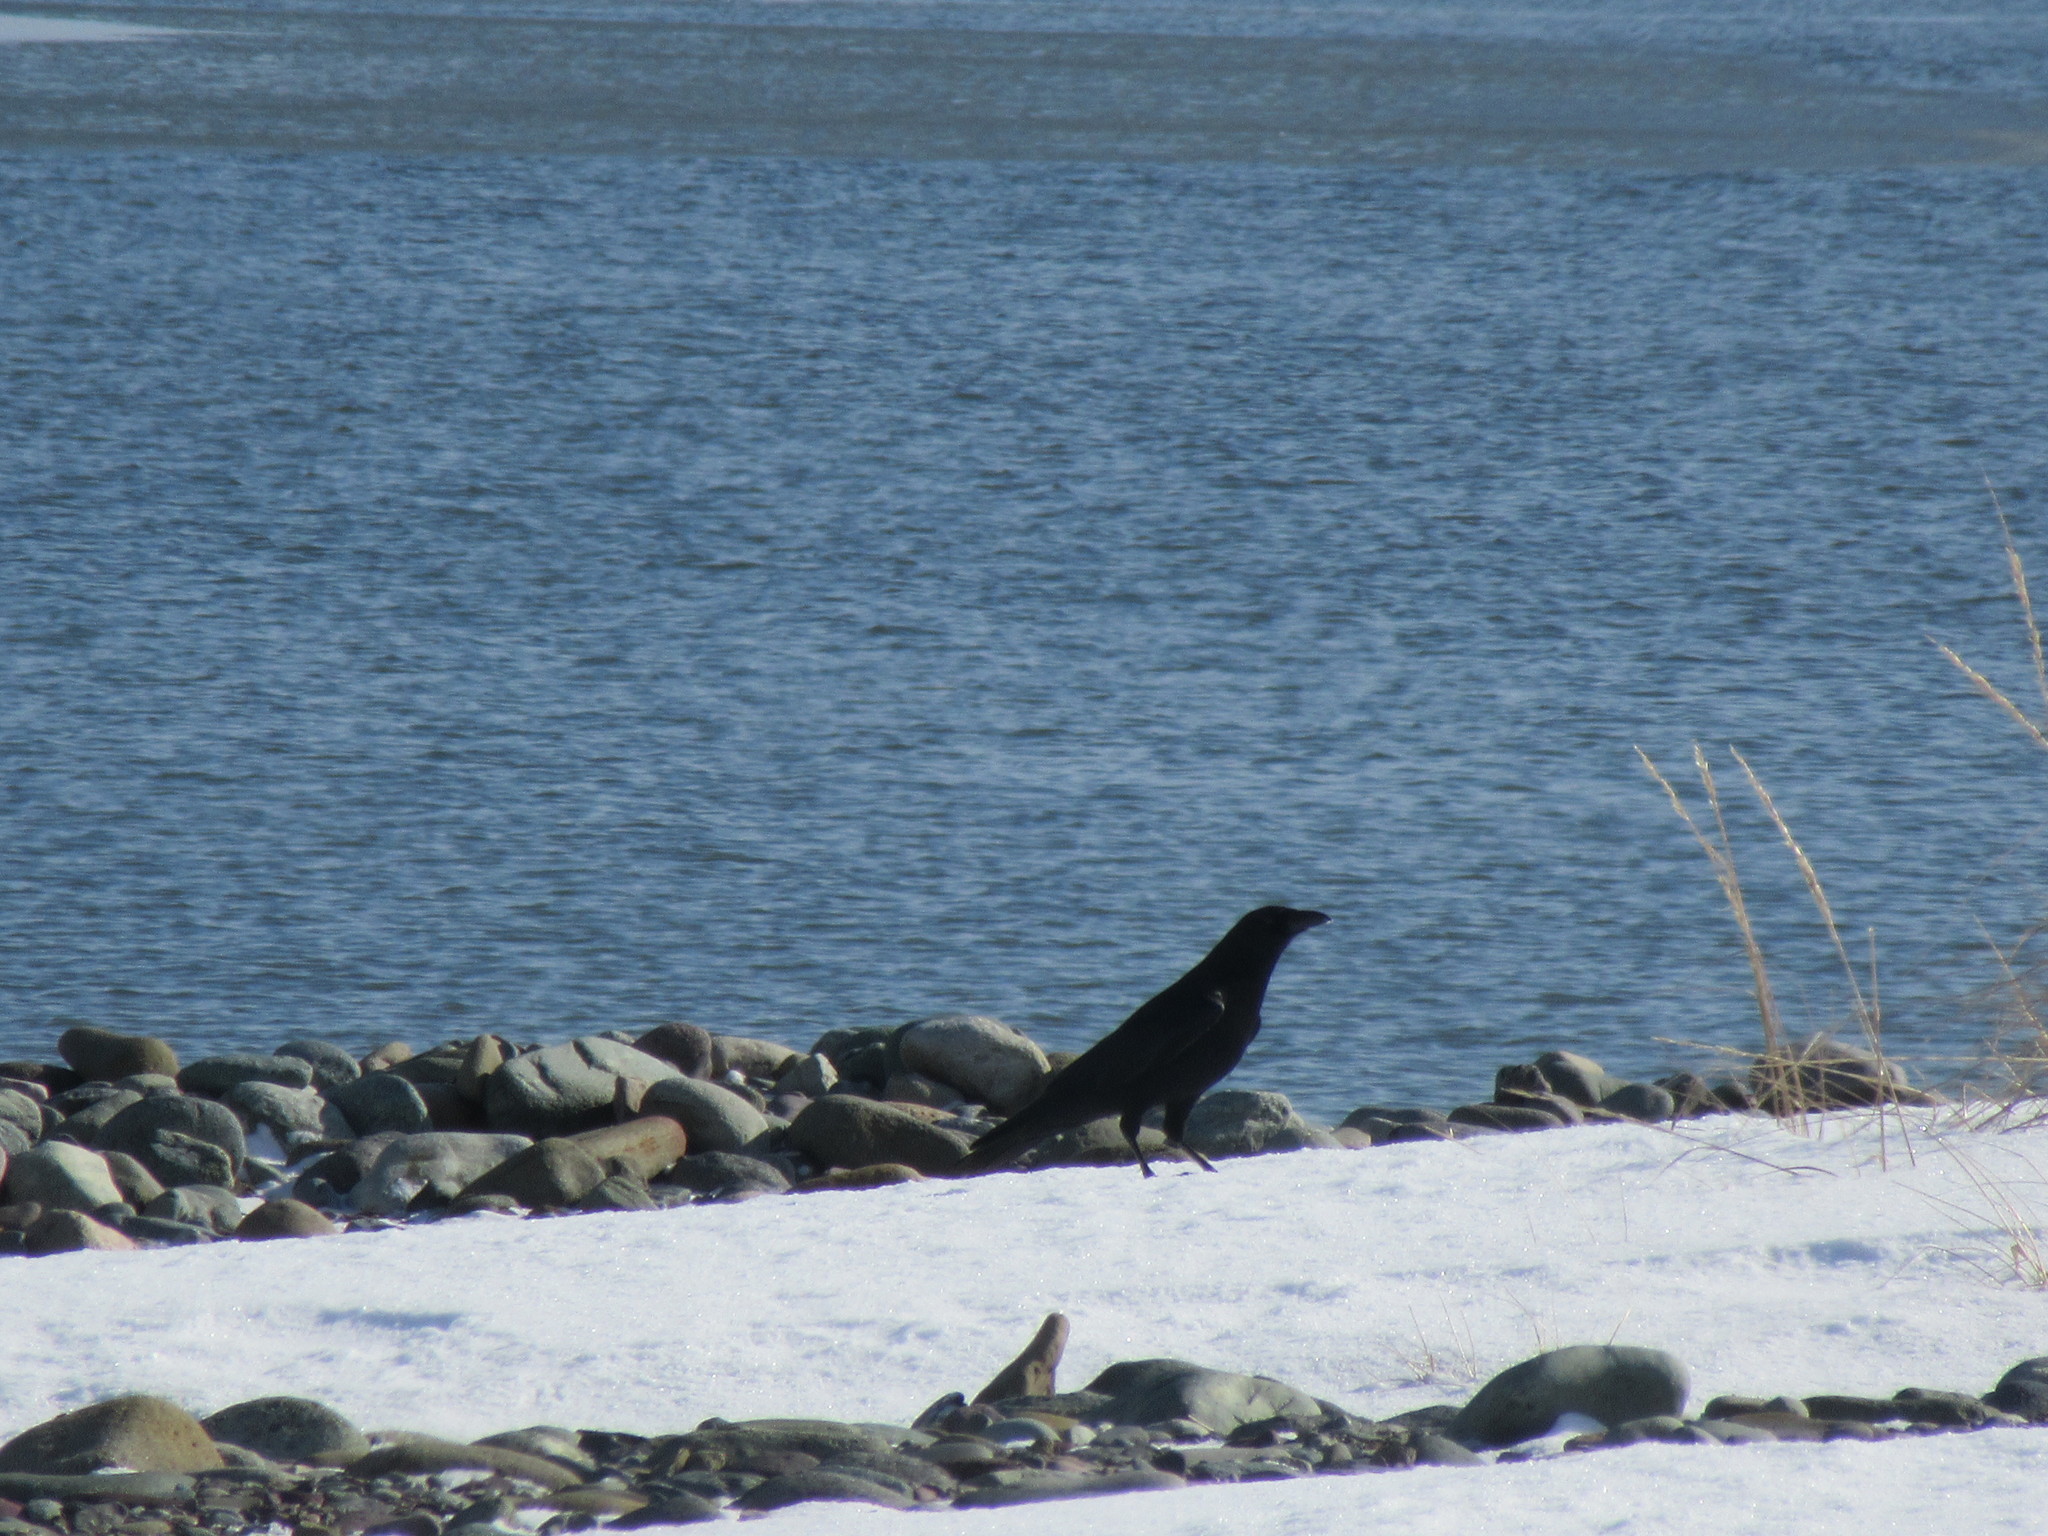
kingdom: Animalia
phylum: Chordata
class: Aves
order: Passeriformes
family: Corvidae
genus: Corvus
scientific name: Corvus brachyrhynchos
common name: American crow
